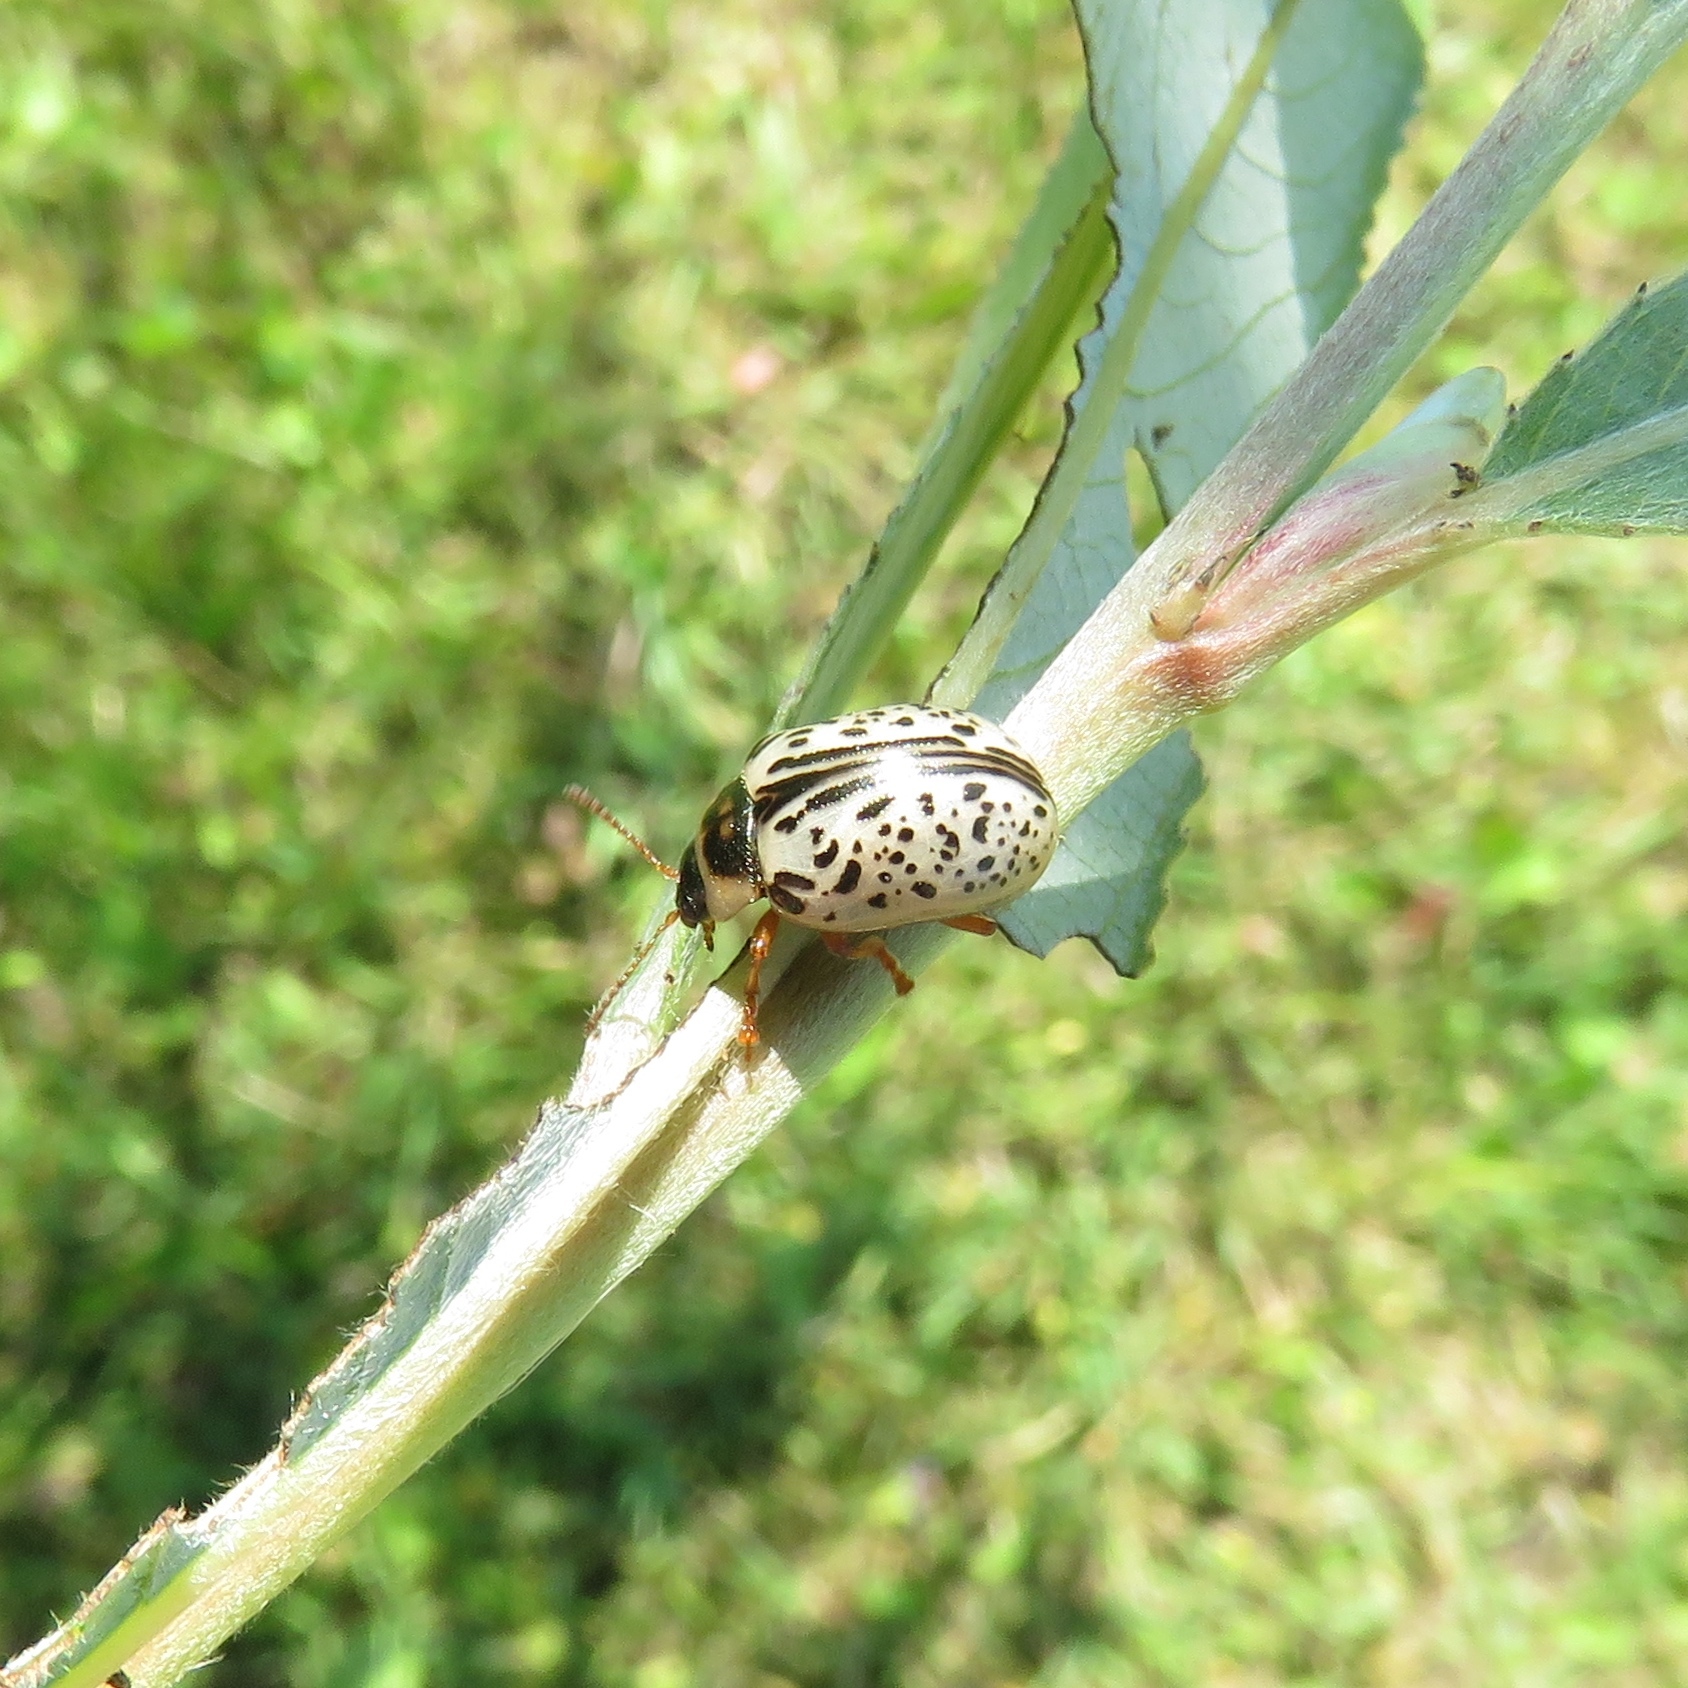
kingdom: Animalia
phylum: Arthropoda
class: Insecta
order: Coleoptera
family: Chrysomelidae
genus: Calligrapha
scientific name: Calligrapha multipunctata
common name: Common willow calligrapher beetle
